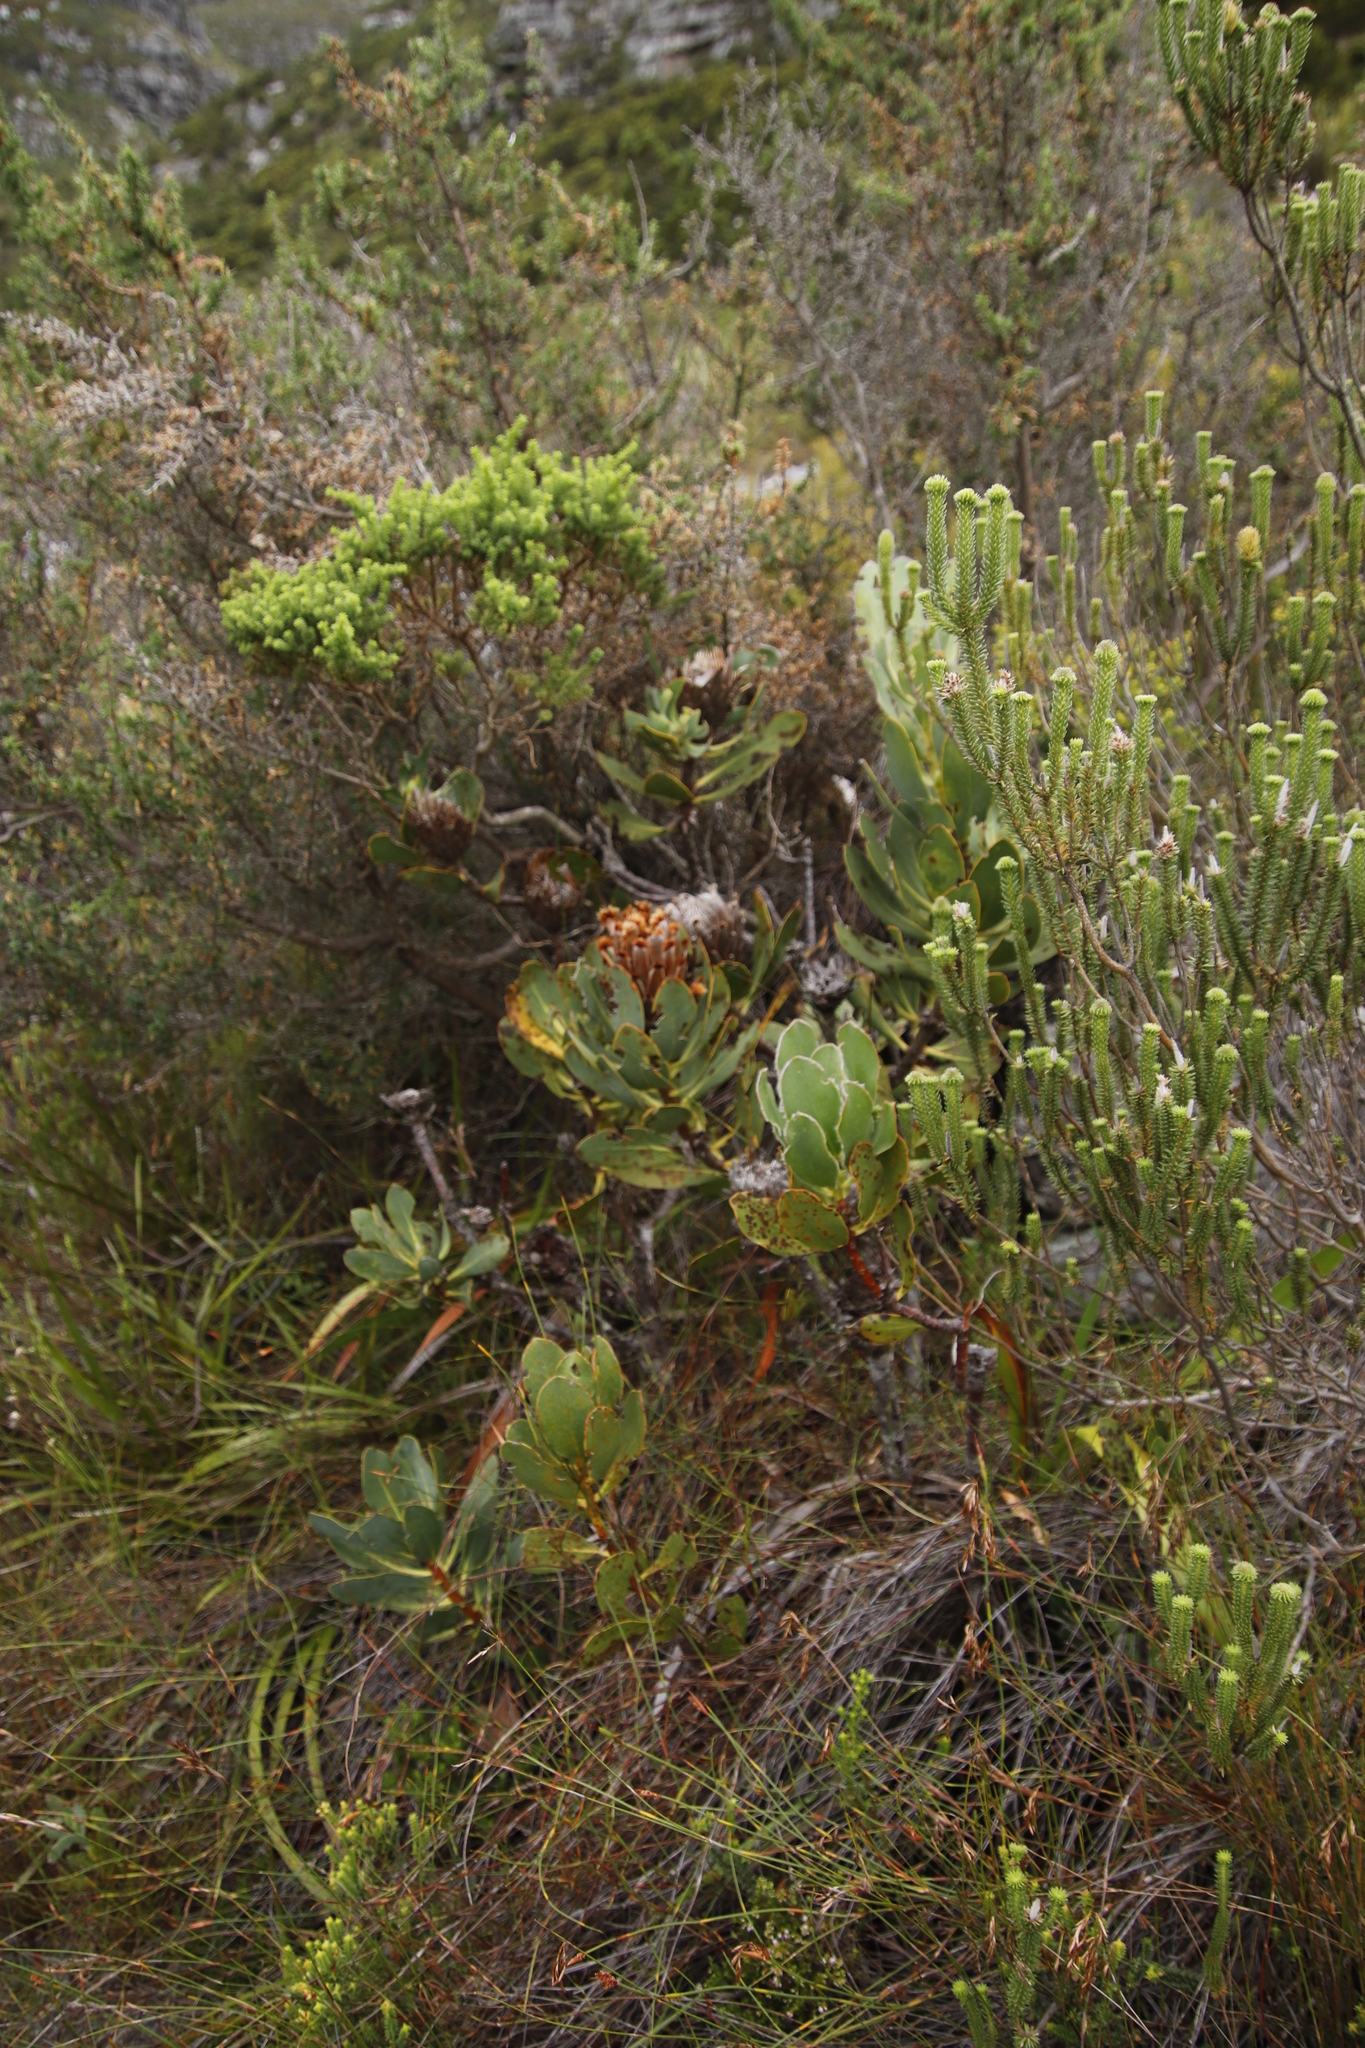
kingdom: Plantae
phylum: Tracheophyta
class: Magnoliopsida
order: Proteales
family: Proteaceae
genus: Protea
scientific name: Protea speciosa
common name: Brown-beard sugarbush
